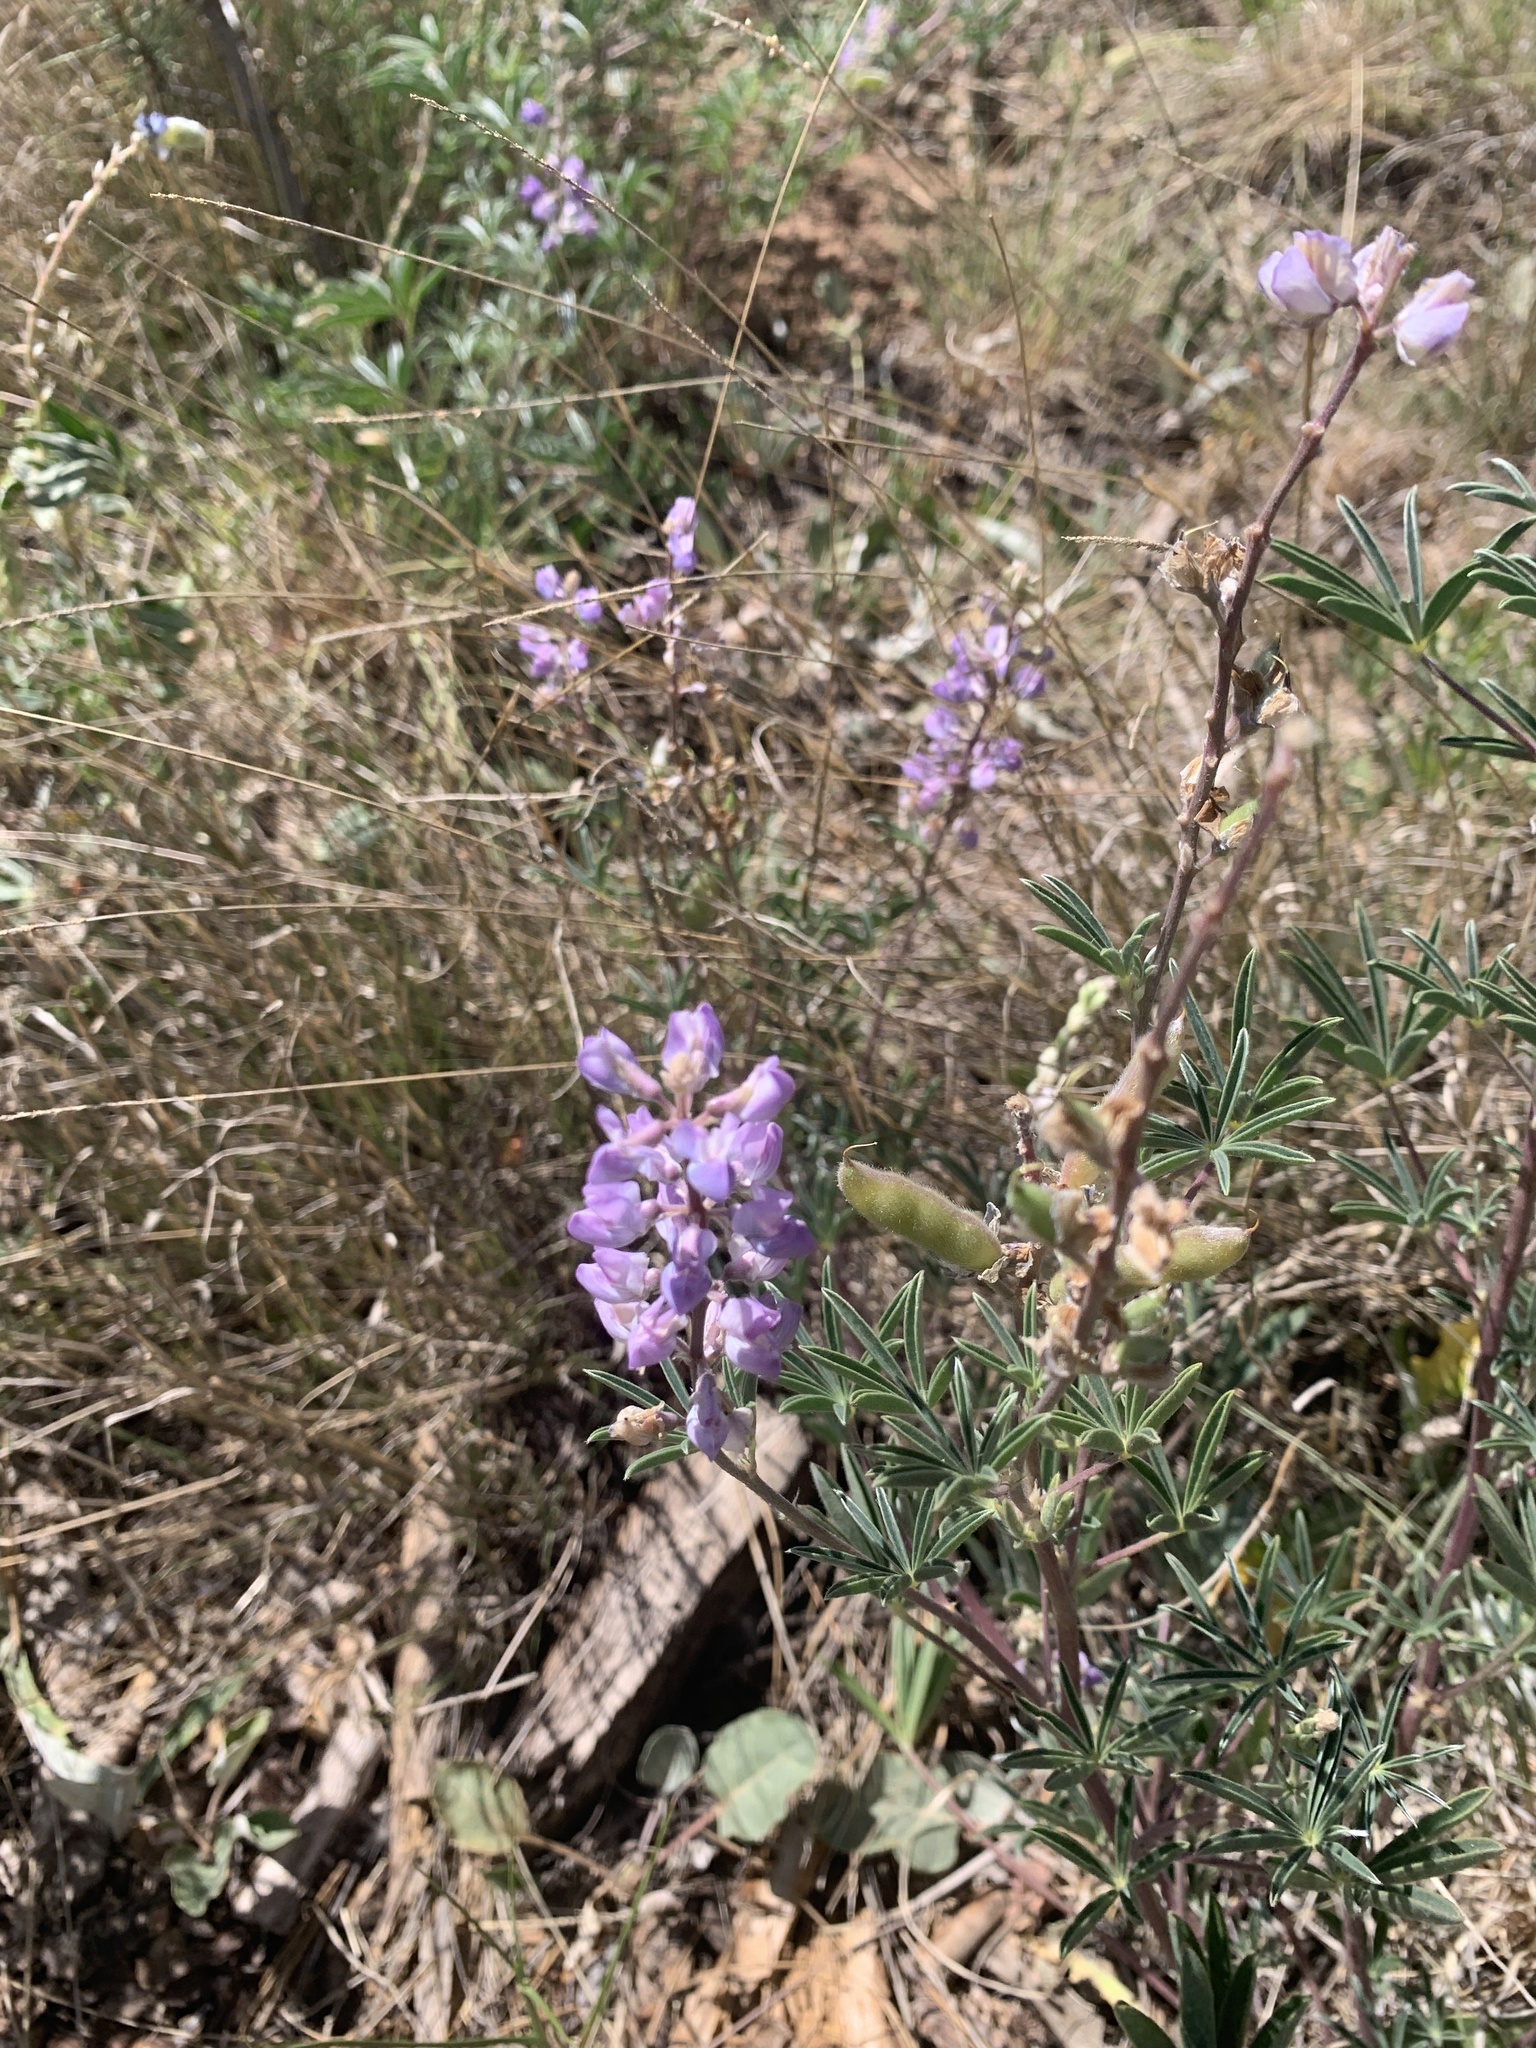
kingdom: Plantae
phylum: Tracheophyta
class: Magnoliopsida
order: Fabales
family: Fabaceae
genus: Lupinus
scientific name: Lupinus argenteus
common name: Silvery lupine
